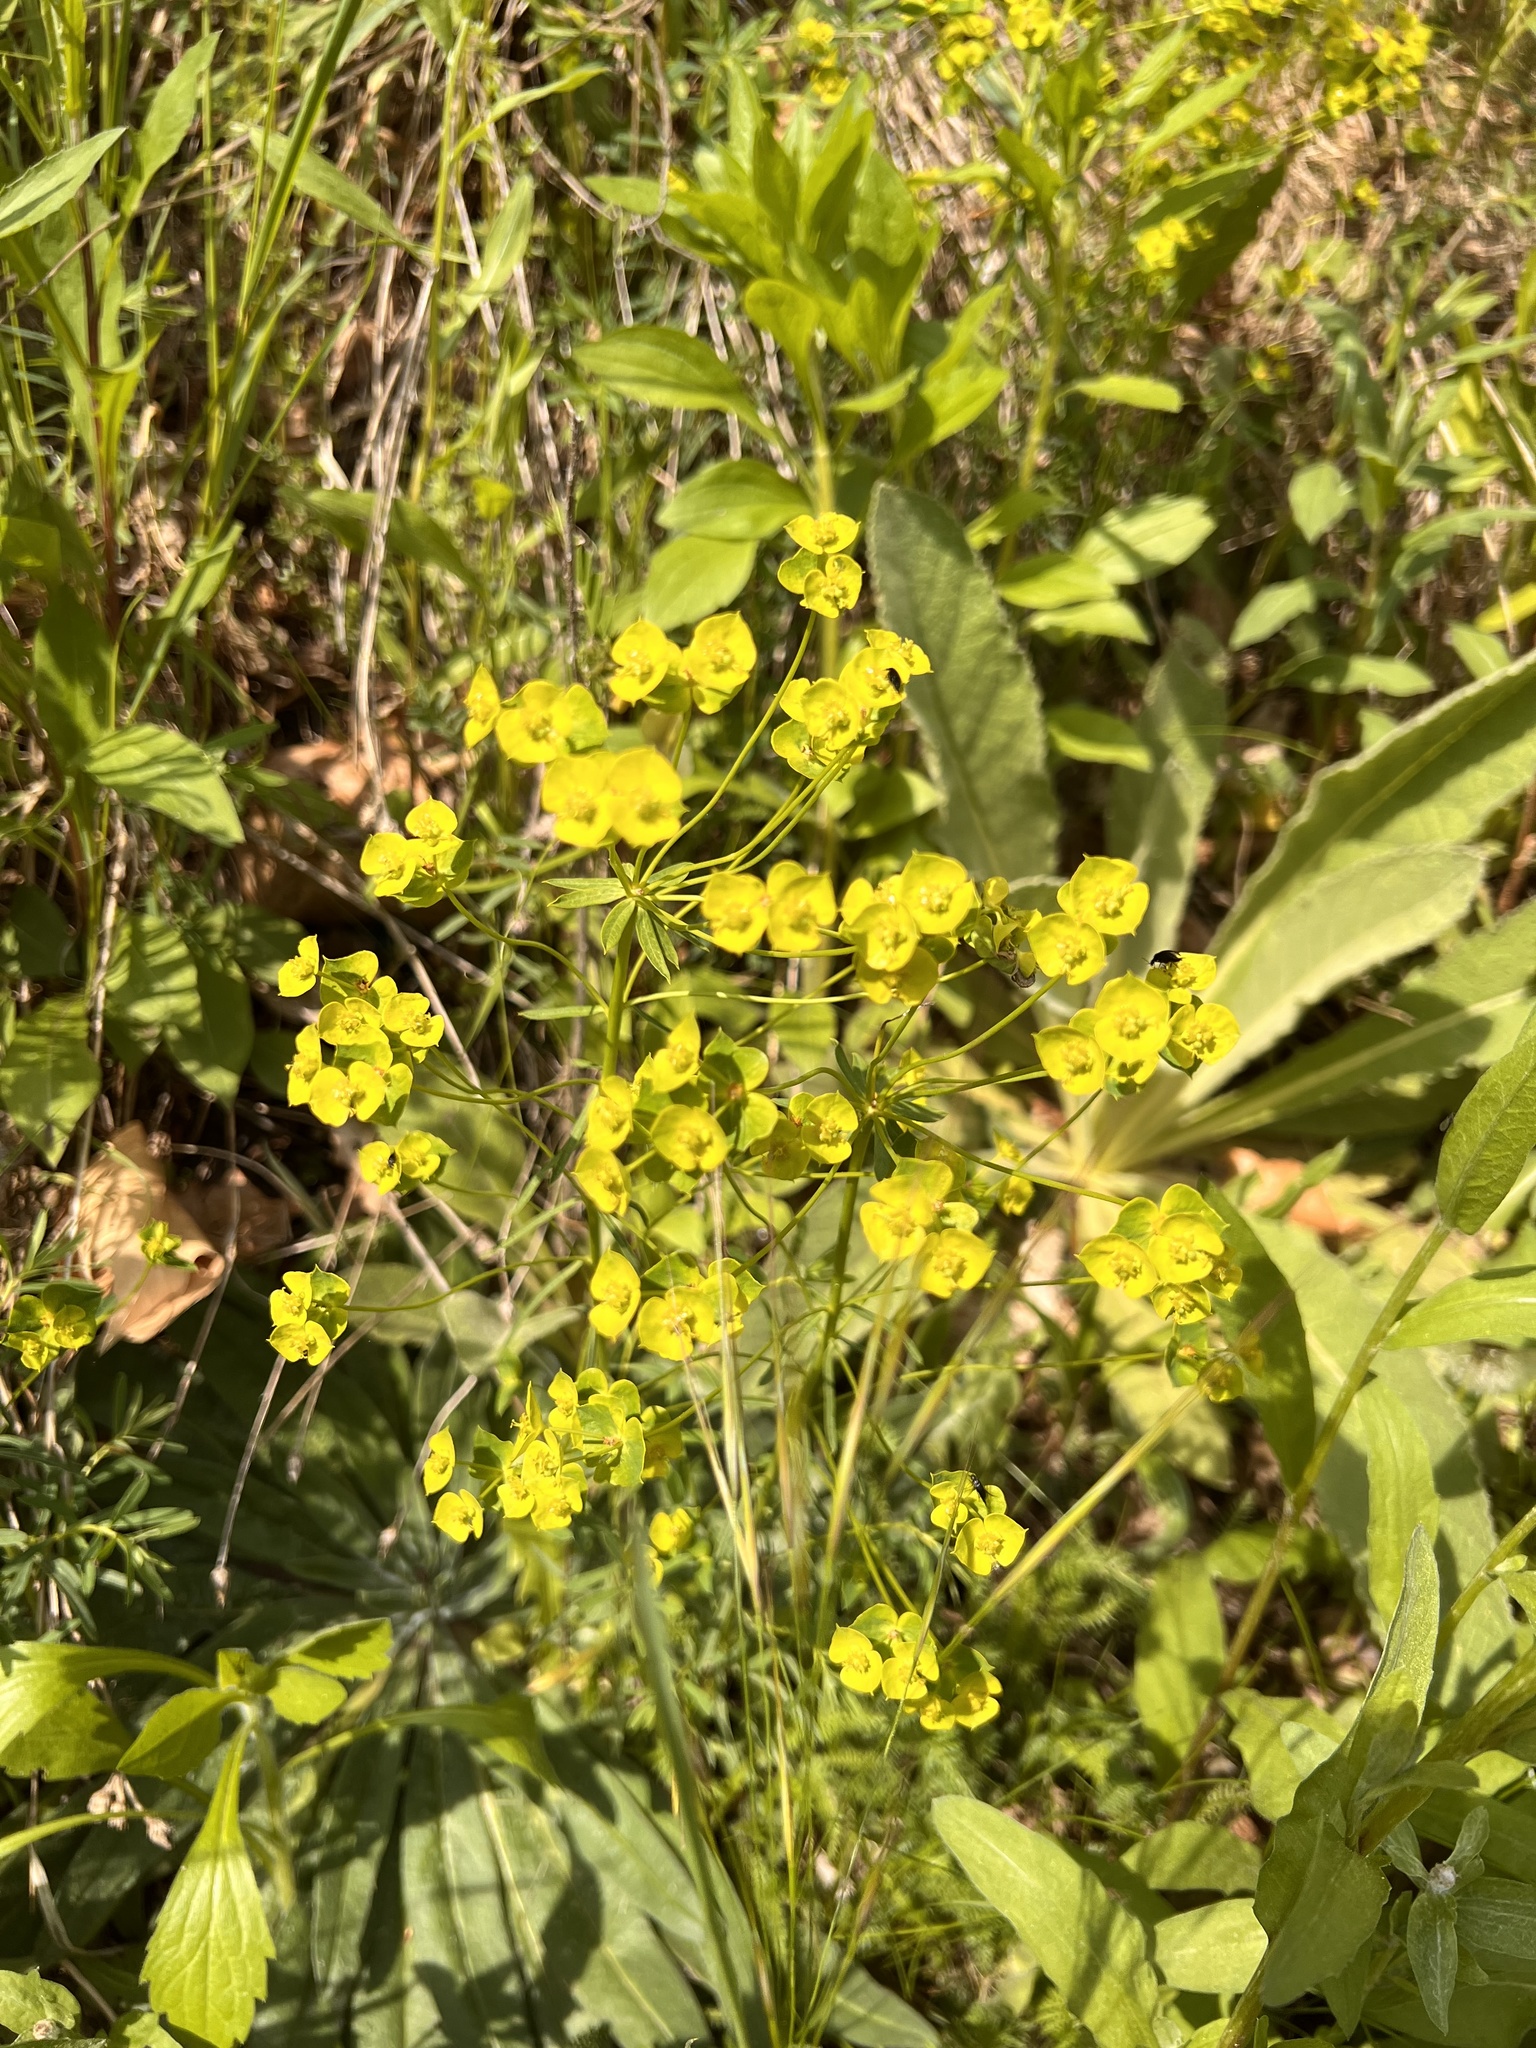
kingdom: Plantae
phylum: Tracheophyta
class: Magnoliopsida
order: Malpighiales
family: Euphorbiaceae
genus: Euphorbia
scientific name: Euphorbia cyparissias
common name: Cypress spurge
